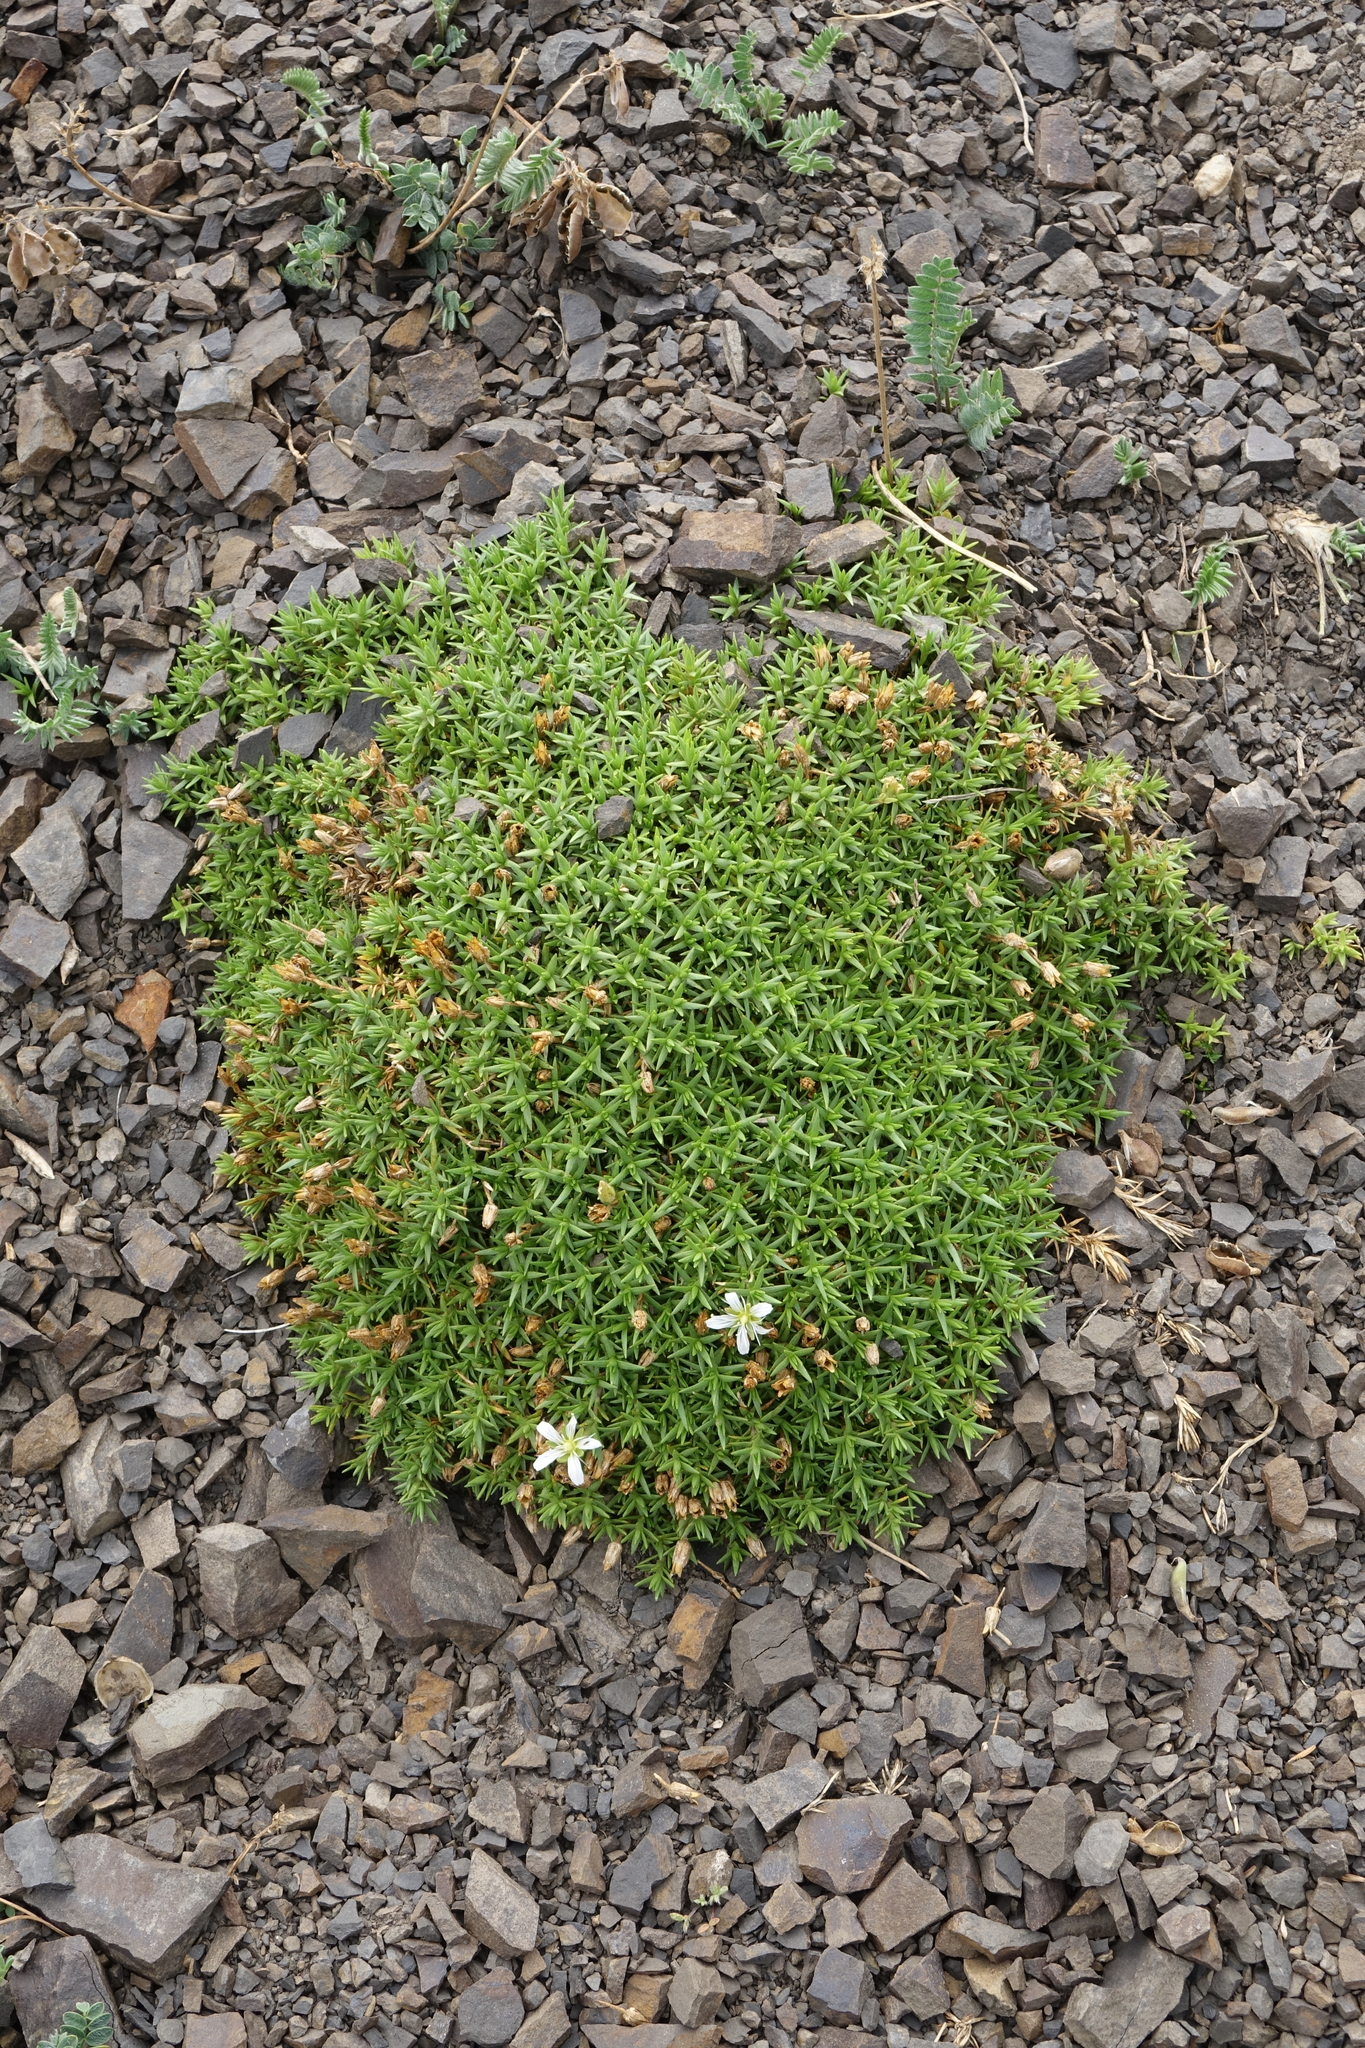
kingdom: Plantae
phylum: Tracheophyta
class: Magnoliopsida
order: Caryophyllales
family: Caryophyllaceae
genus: Pseudocherleria
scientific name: Pseudocherleria imbricata
